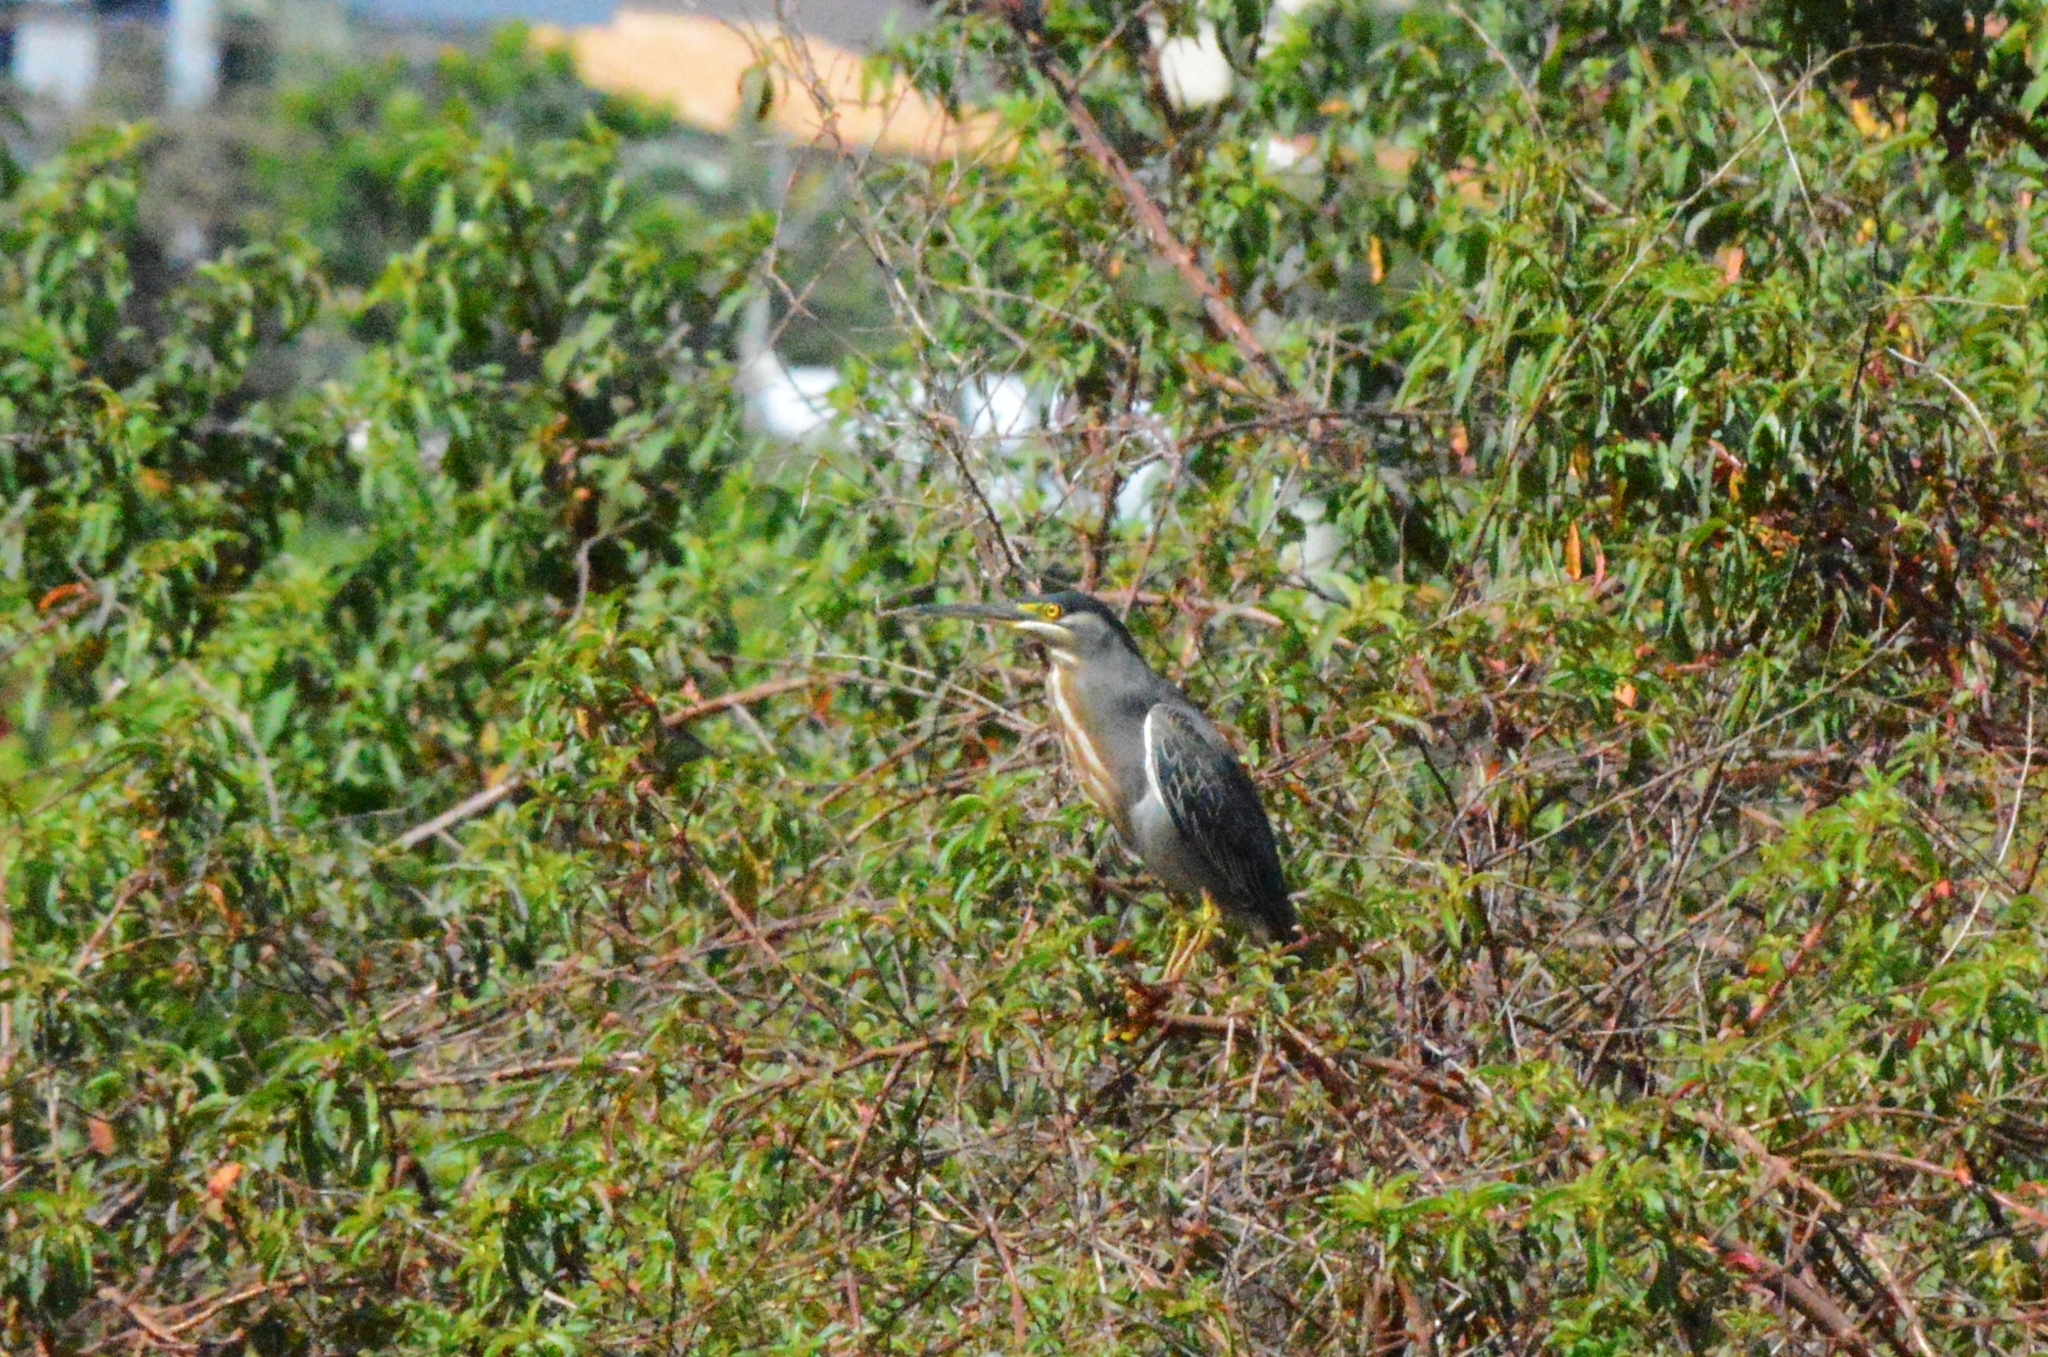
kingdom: Animalia
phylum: Chordata
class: Aves
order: Pelecaniformes
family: Ardeidae
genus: Butorides
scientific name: Butorides striata
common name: Striated heron
